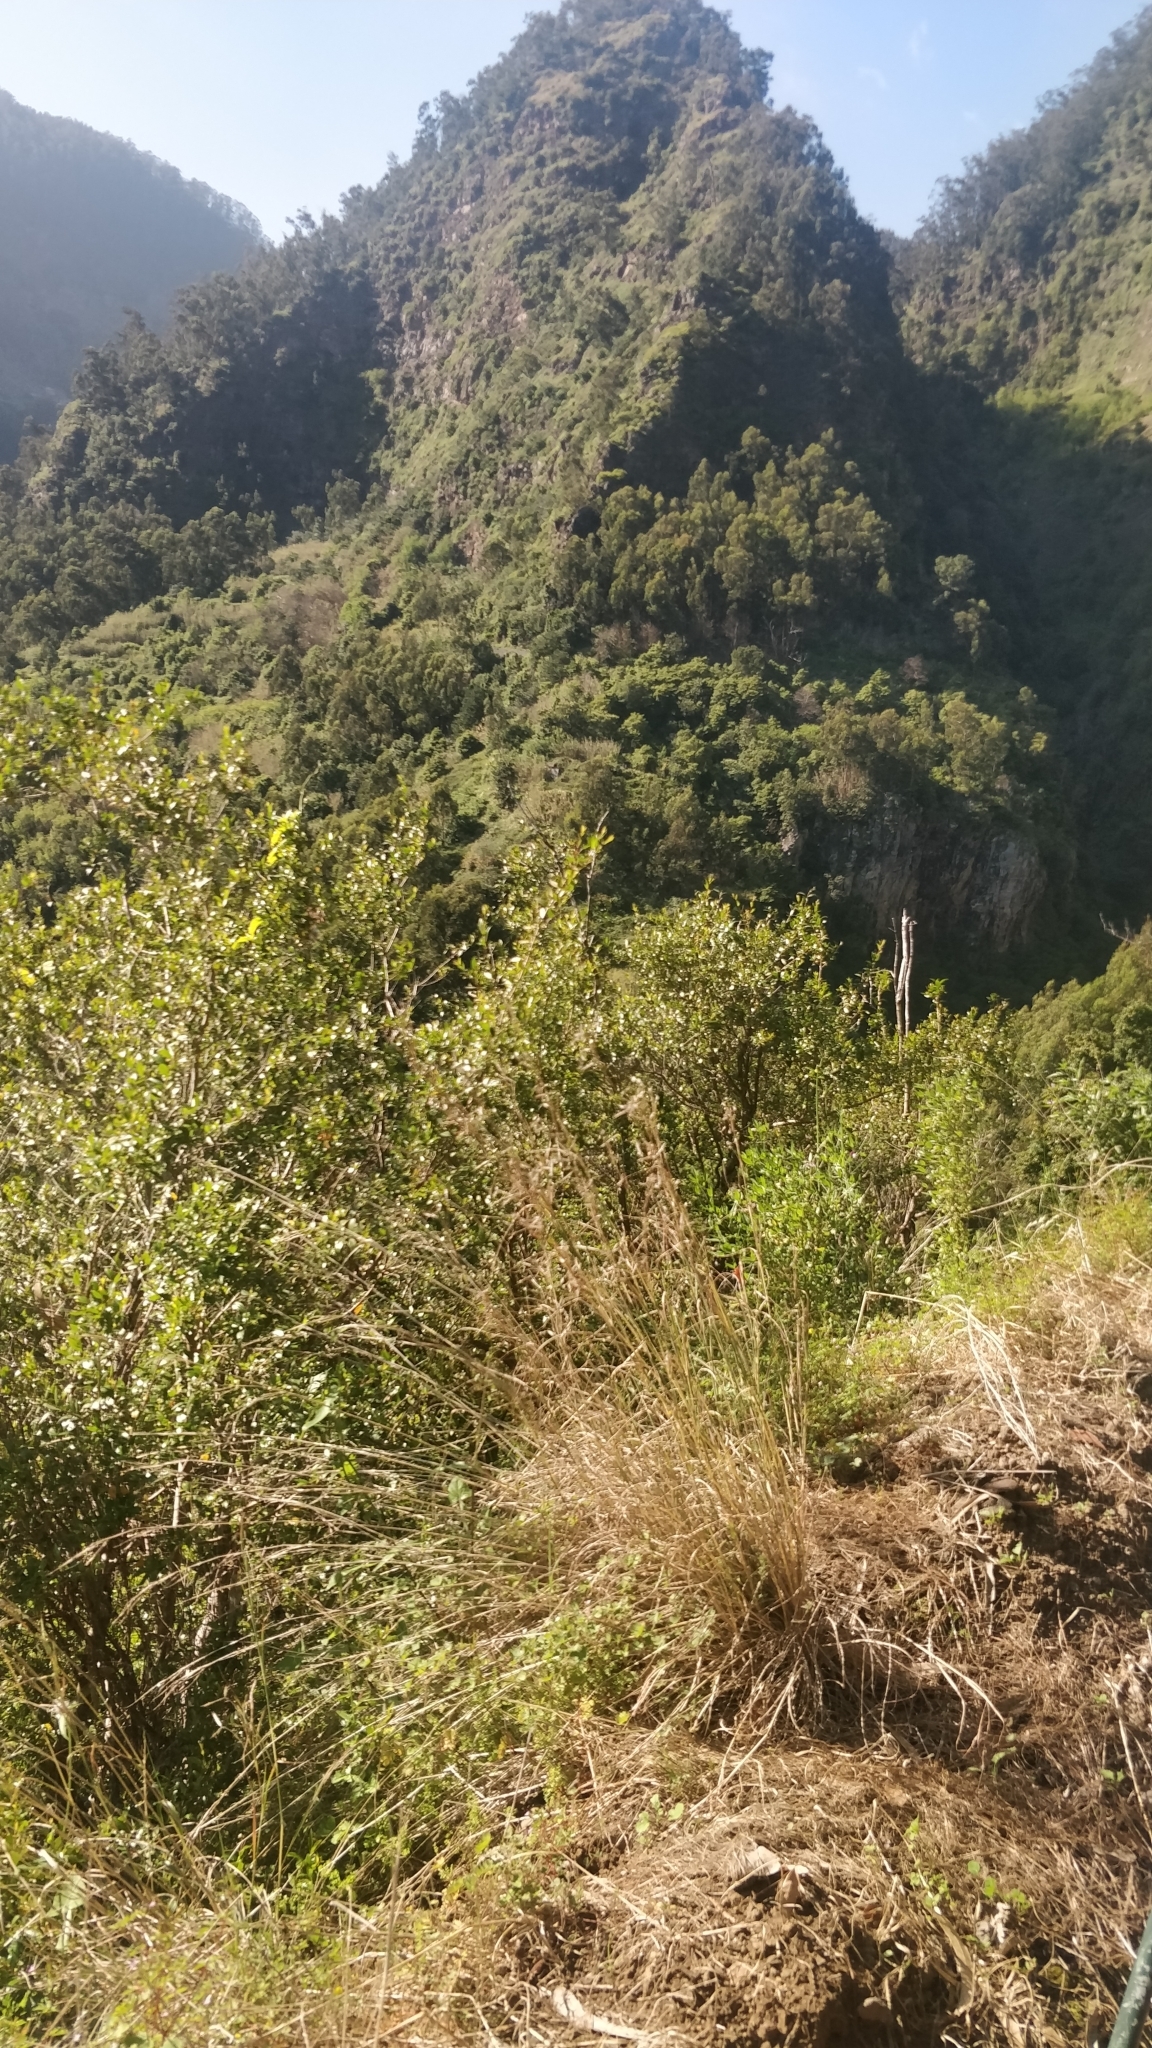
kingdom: Plantae
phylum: Tracheophyta
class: Magnoliopsida
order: Myrtales
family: Myrtaceae
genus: Myrtus
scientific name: Myrtus communis
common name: Myrtle
